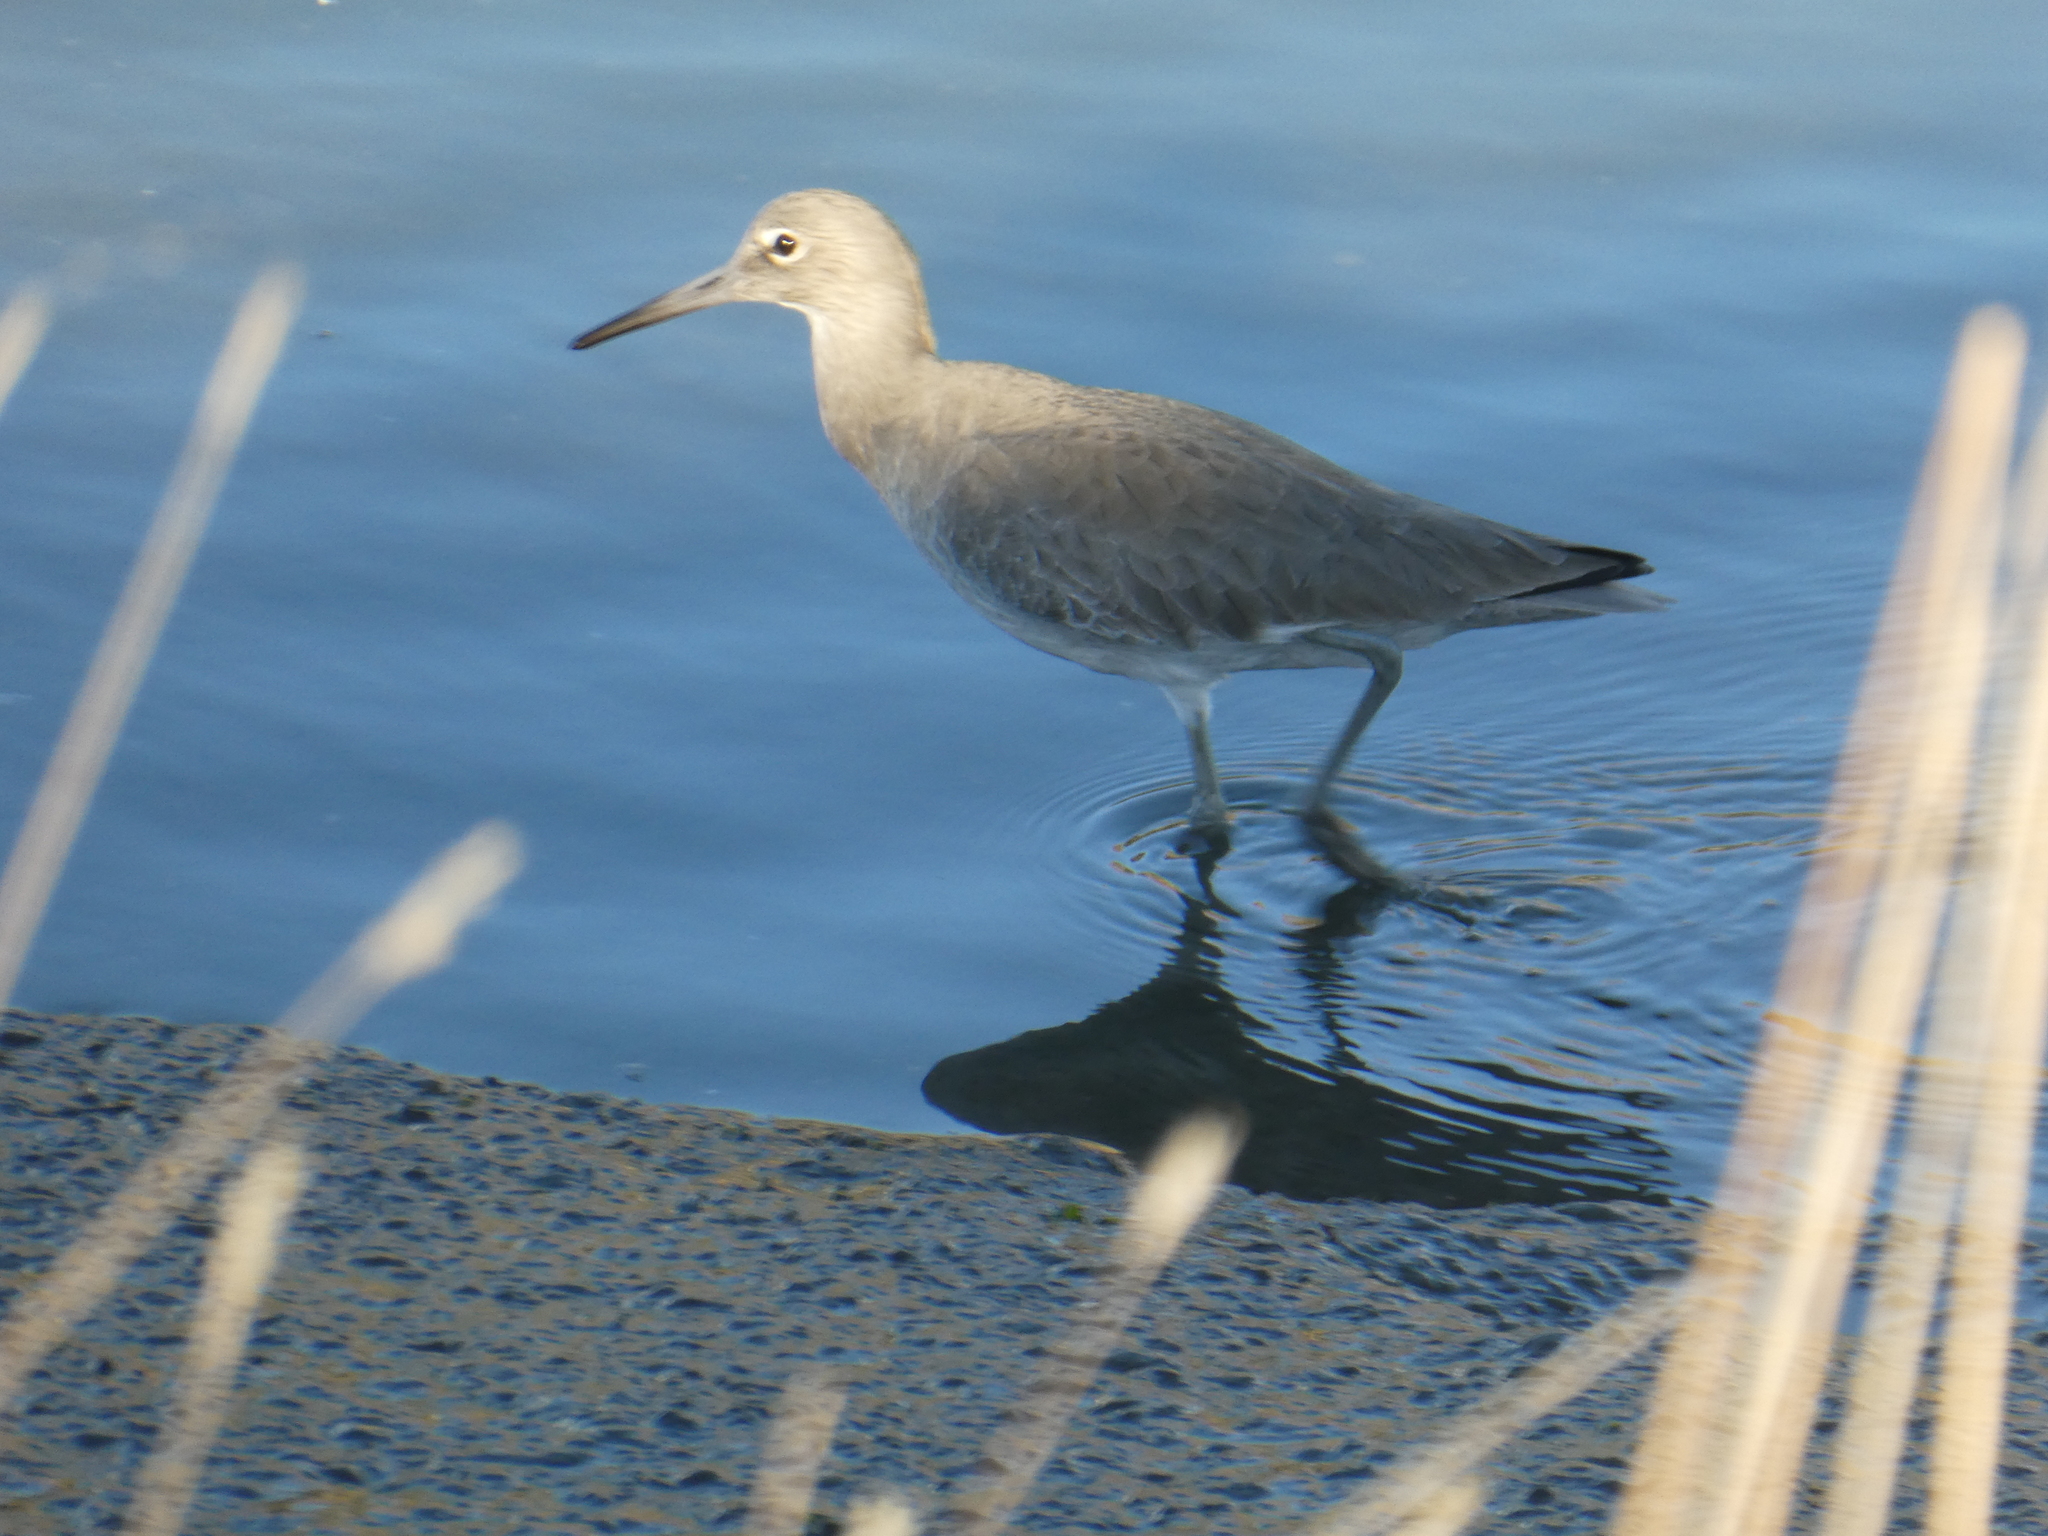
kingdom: Animalia
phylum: Chordata
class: Aves
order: Charadriiformes
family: Scolopacidae
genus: Tringa
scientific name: Tringa semipalmata
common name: Willet
